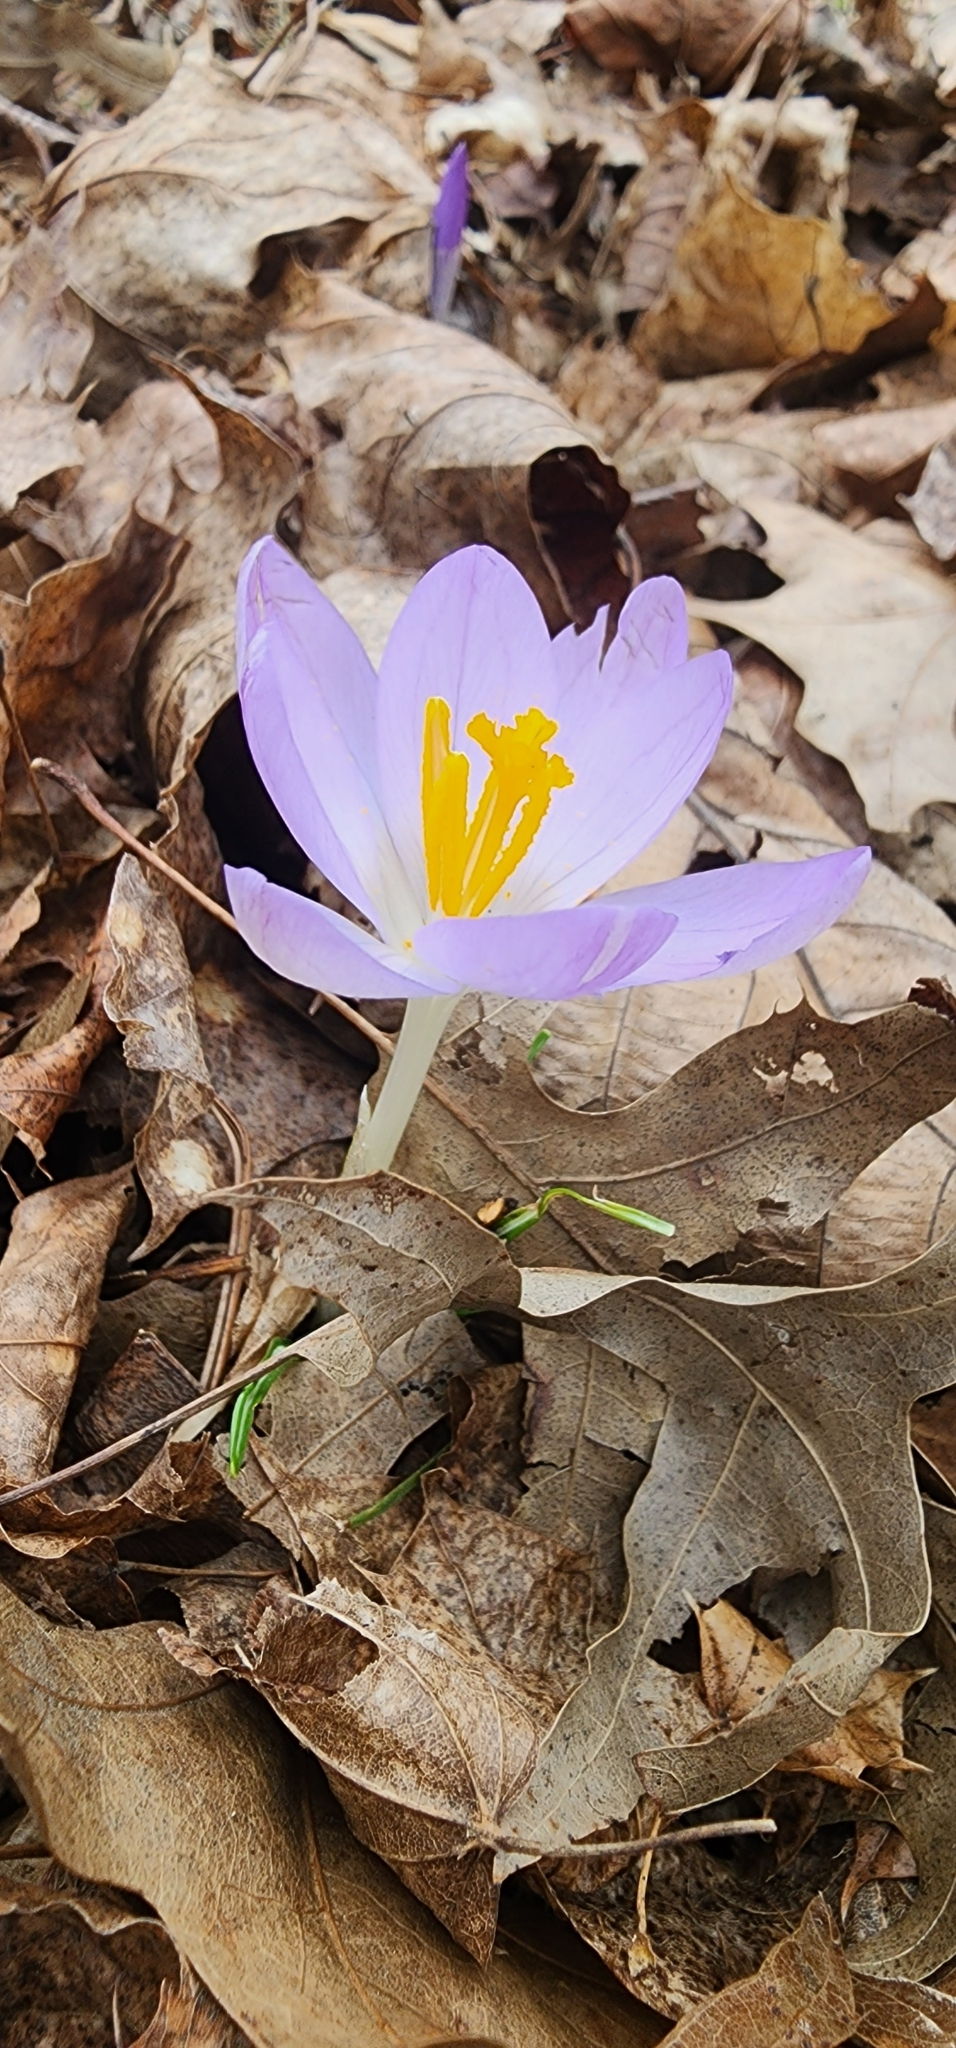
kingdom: Plantae
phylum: Tracheophyta
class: Liliopsida
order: Asparagales
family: Iridaceae
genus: Crocus
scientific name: Crocus tommasinianus
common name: Early crocus
